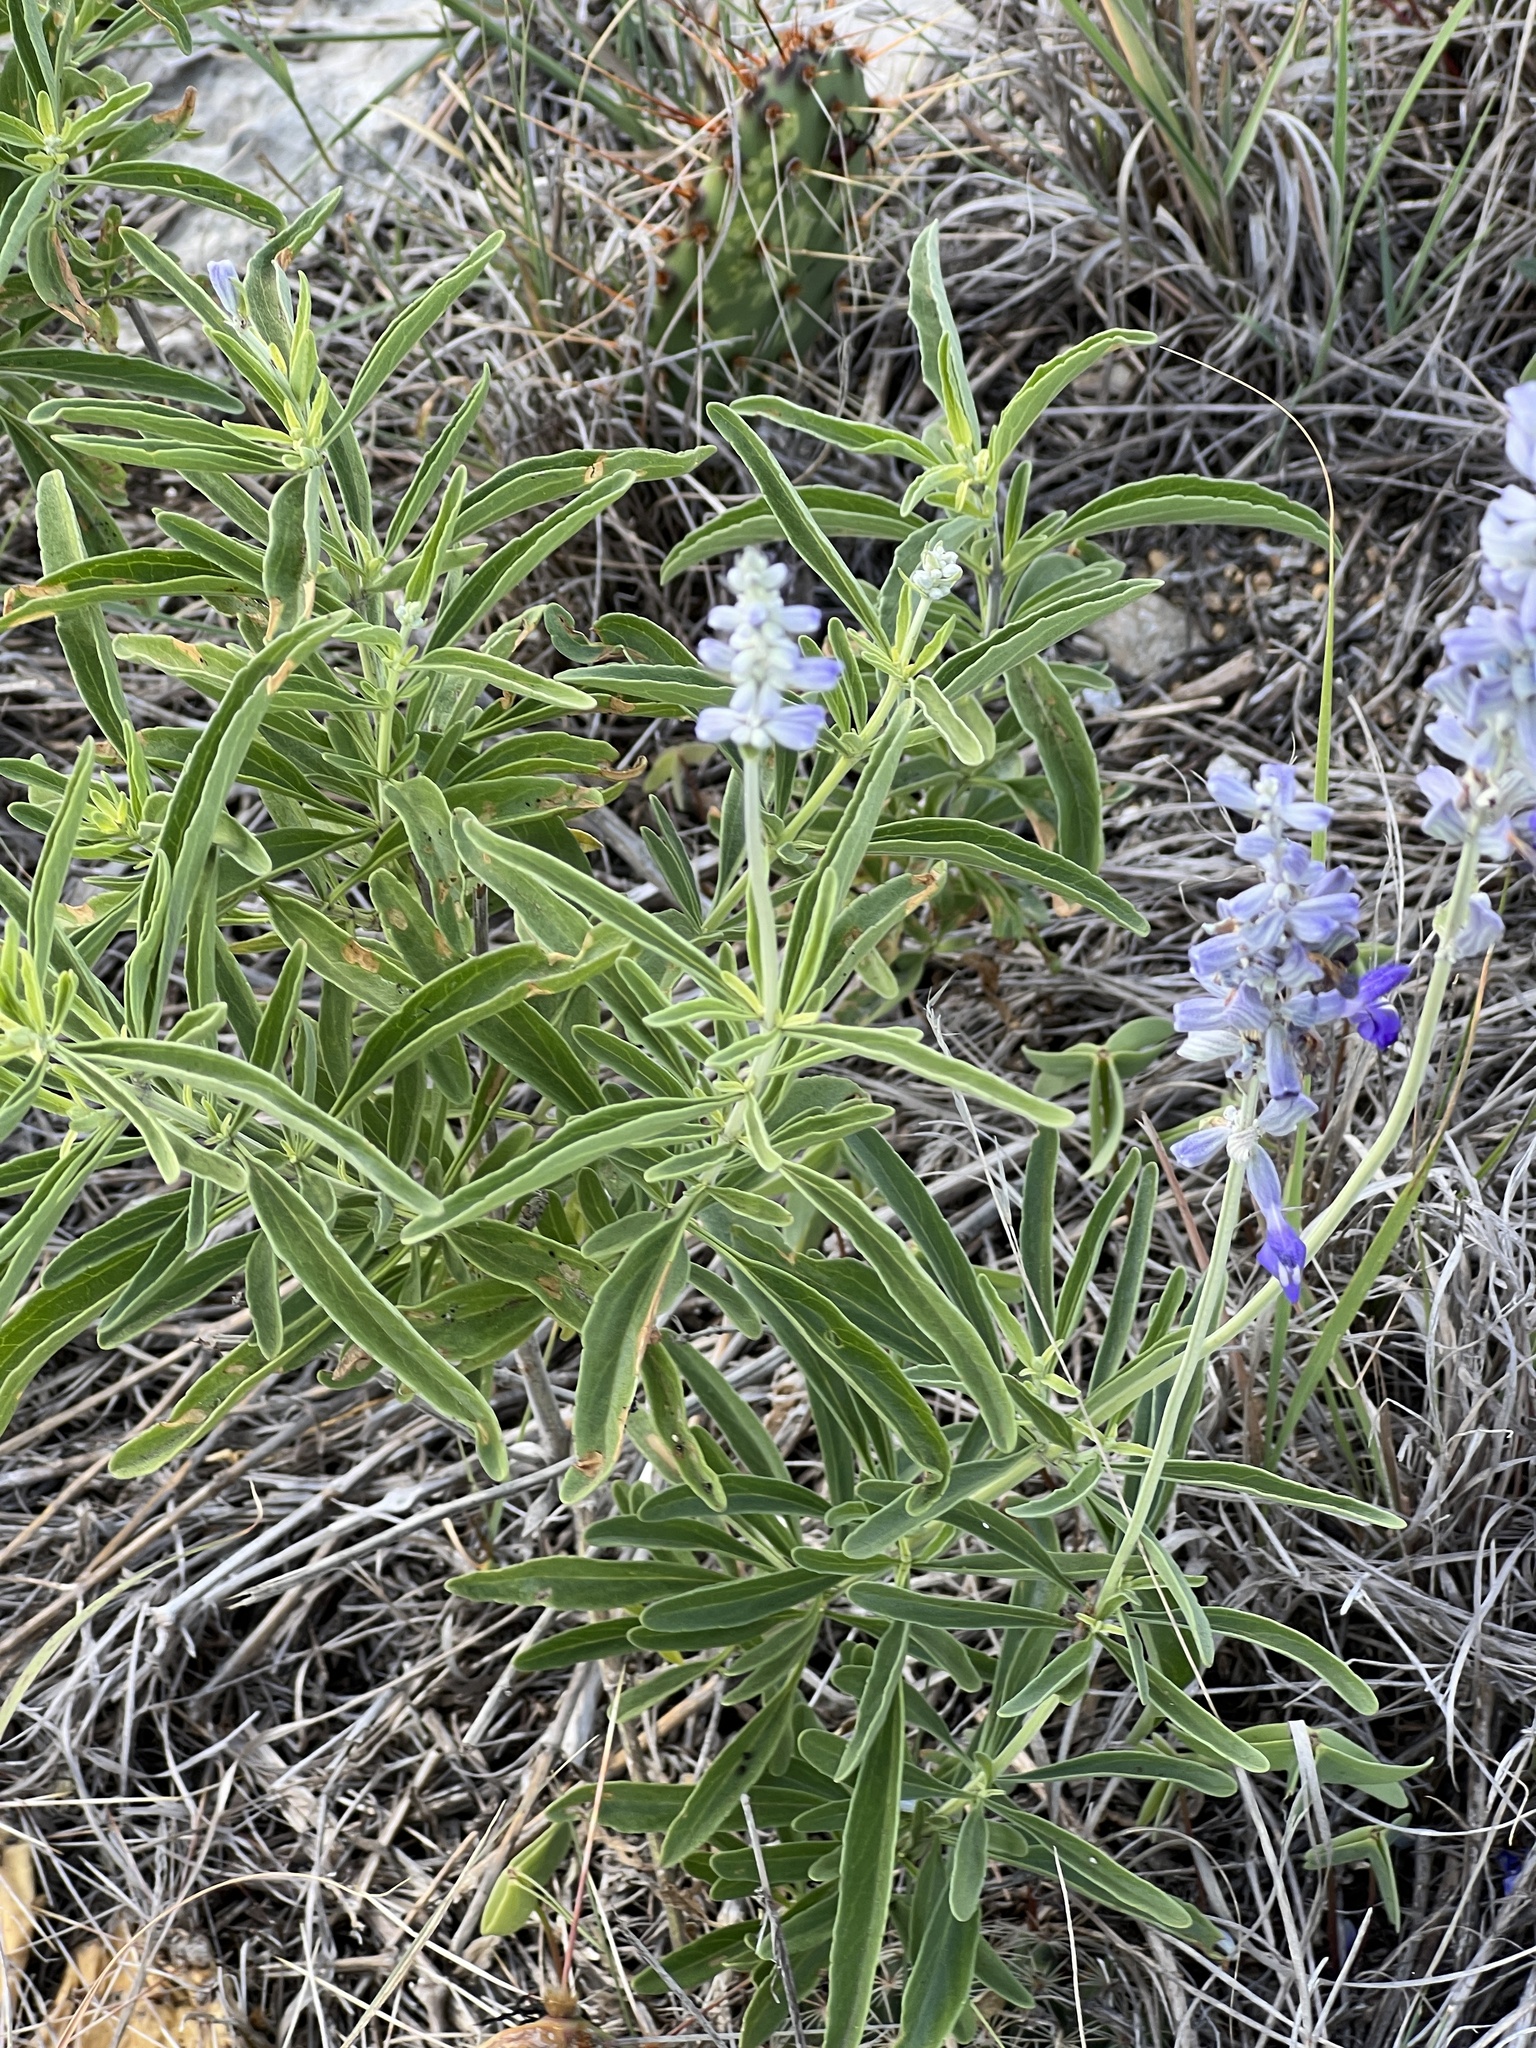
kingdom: Plantae
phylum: Tracheophyta
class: Magnoliopsida
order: Lamiales
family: Lamiaceae
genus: Salvia
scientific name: Salvia farinacea
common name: Mealy sage
